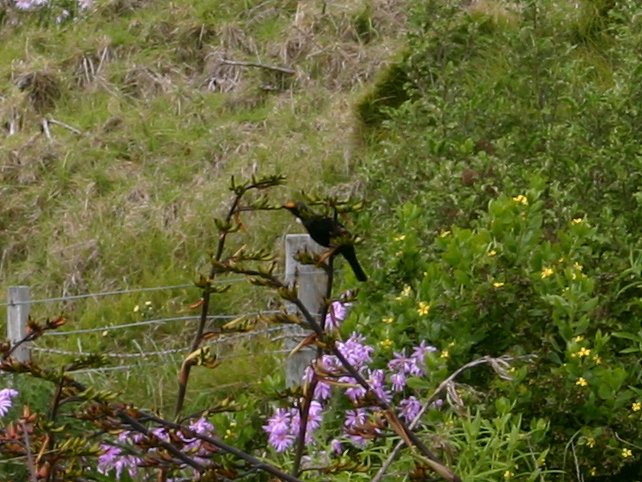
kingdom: Animalia
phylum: Chordata
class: Aves
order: Passeriformes
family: Meliphagidae
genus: Prosthemadera
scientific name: Prosthemadera novaeseelandiae
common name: Tui
